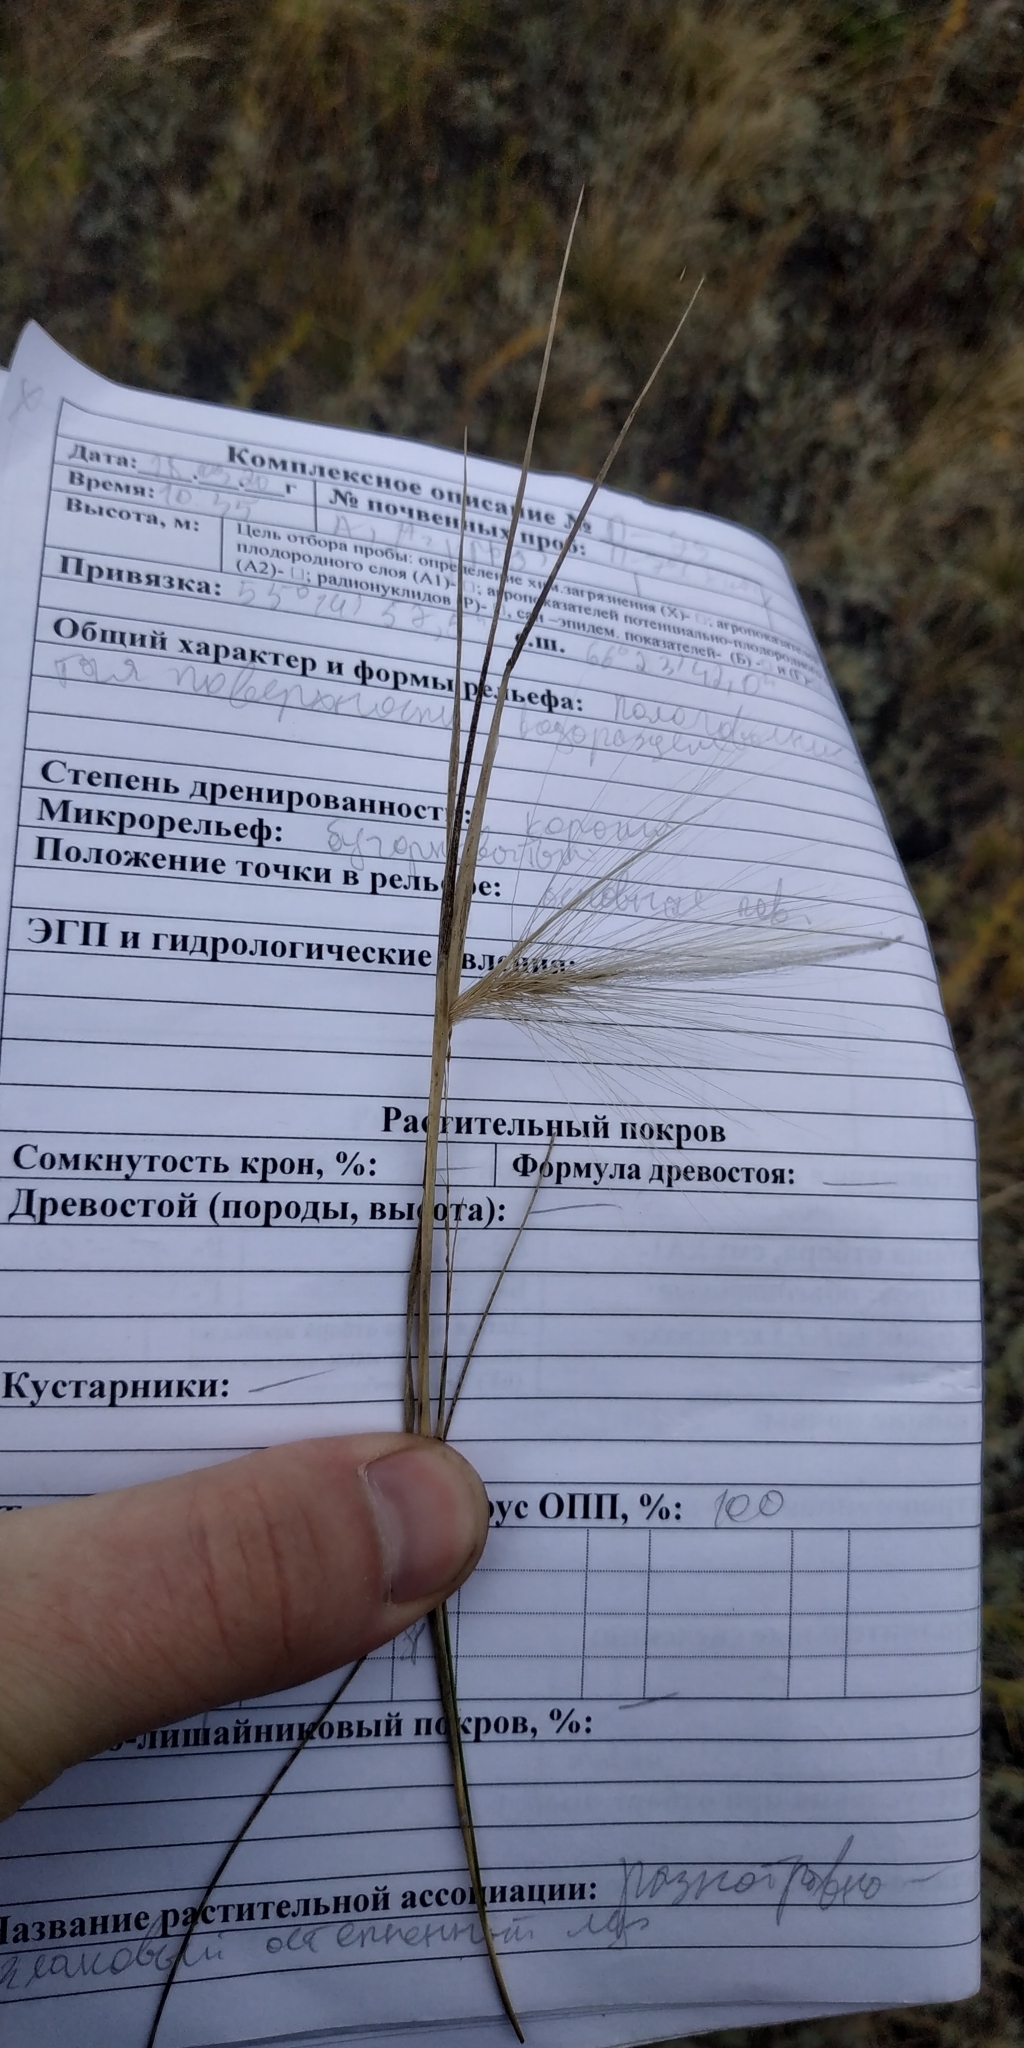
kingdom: Plantae
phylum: Tracheophyta
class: Liliopsida
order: Poales
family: Poaceae
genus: Hordeum
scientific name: Hordeum jubatum
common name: Foxtail barley
